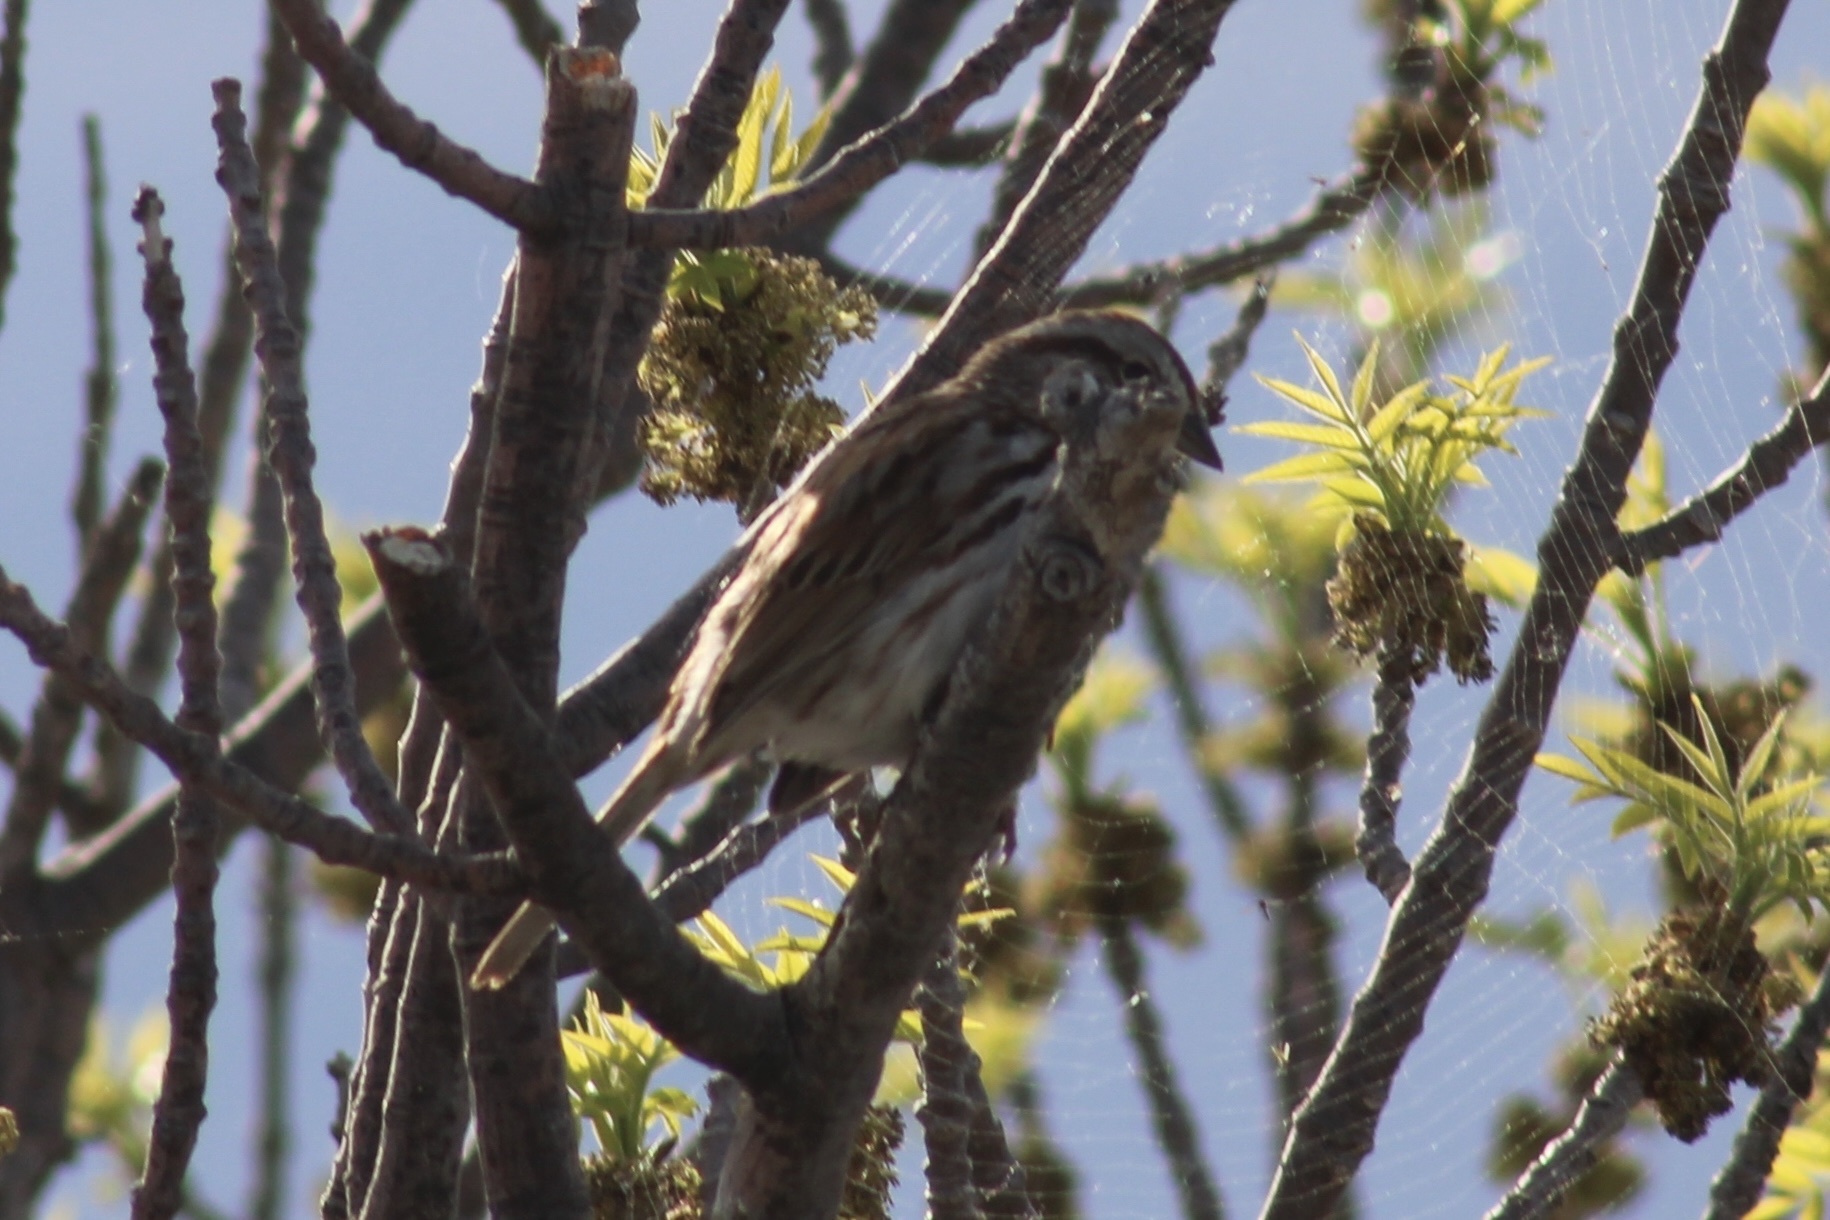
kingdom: Animalia
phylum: Chordata
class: Aves
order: Passeriformes
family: Passerellidae
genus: Melospiza
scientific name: Melospiza melodia
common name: Song sparrow
